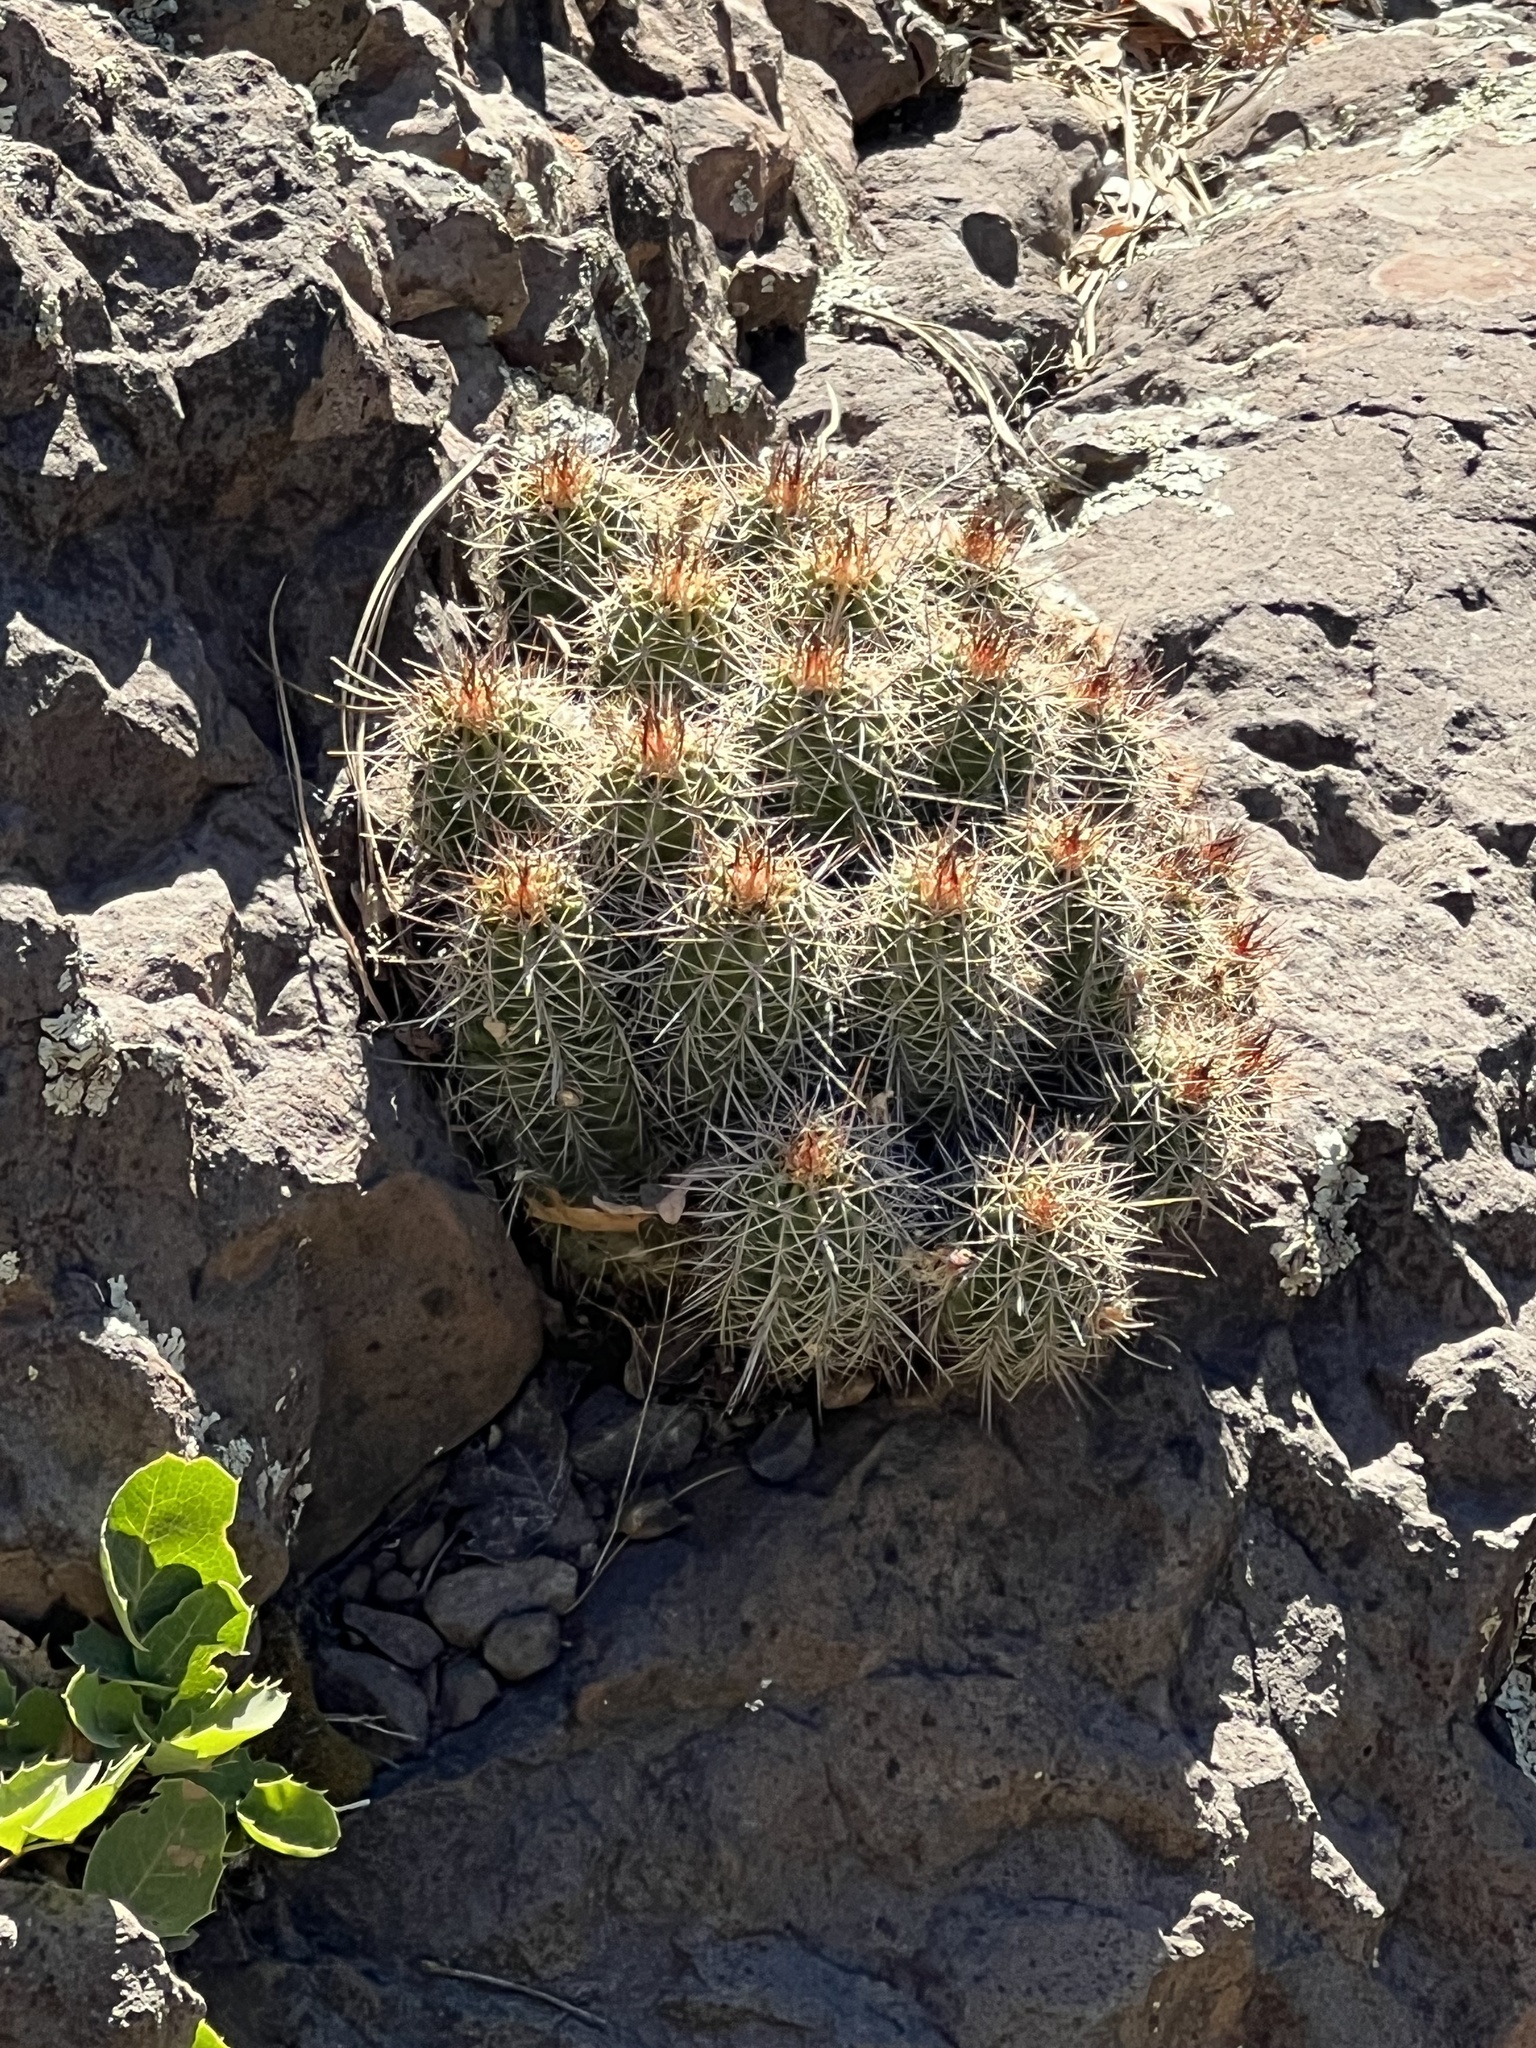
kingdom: Plantae
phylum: Tracheophyta
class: Magnoliopsida
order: Caryophyllales
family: Cactaceae
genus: Echinocereus
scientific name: Echinocereus bakeri
